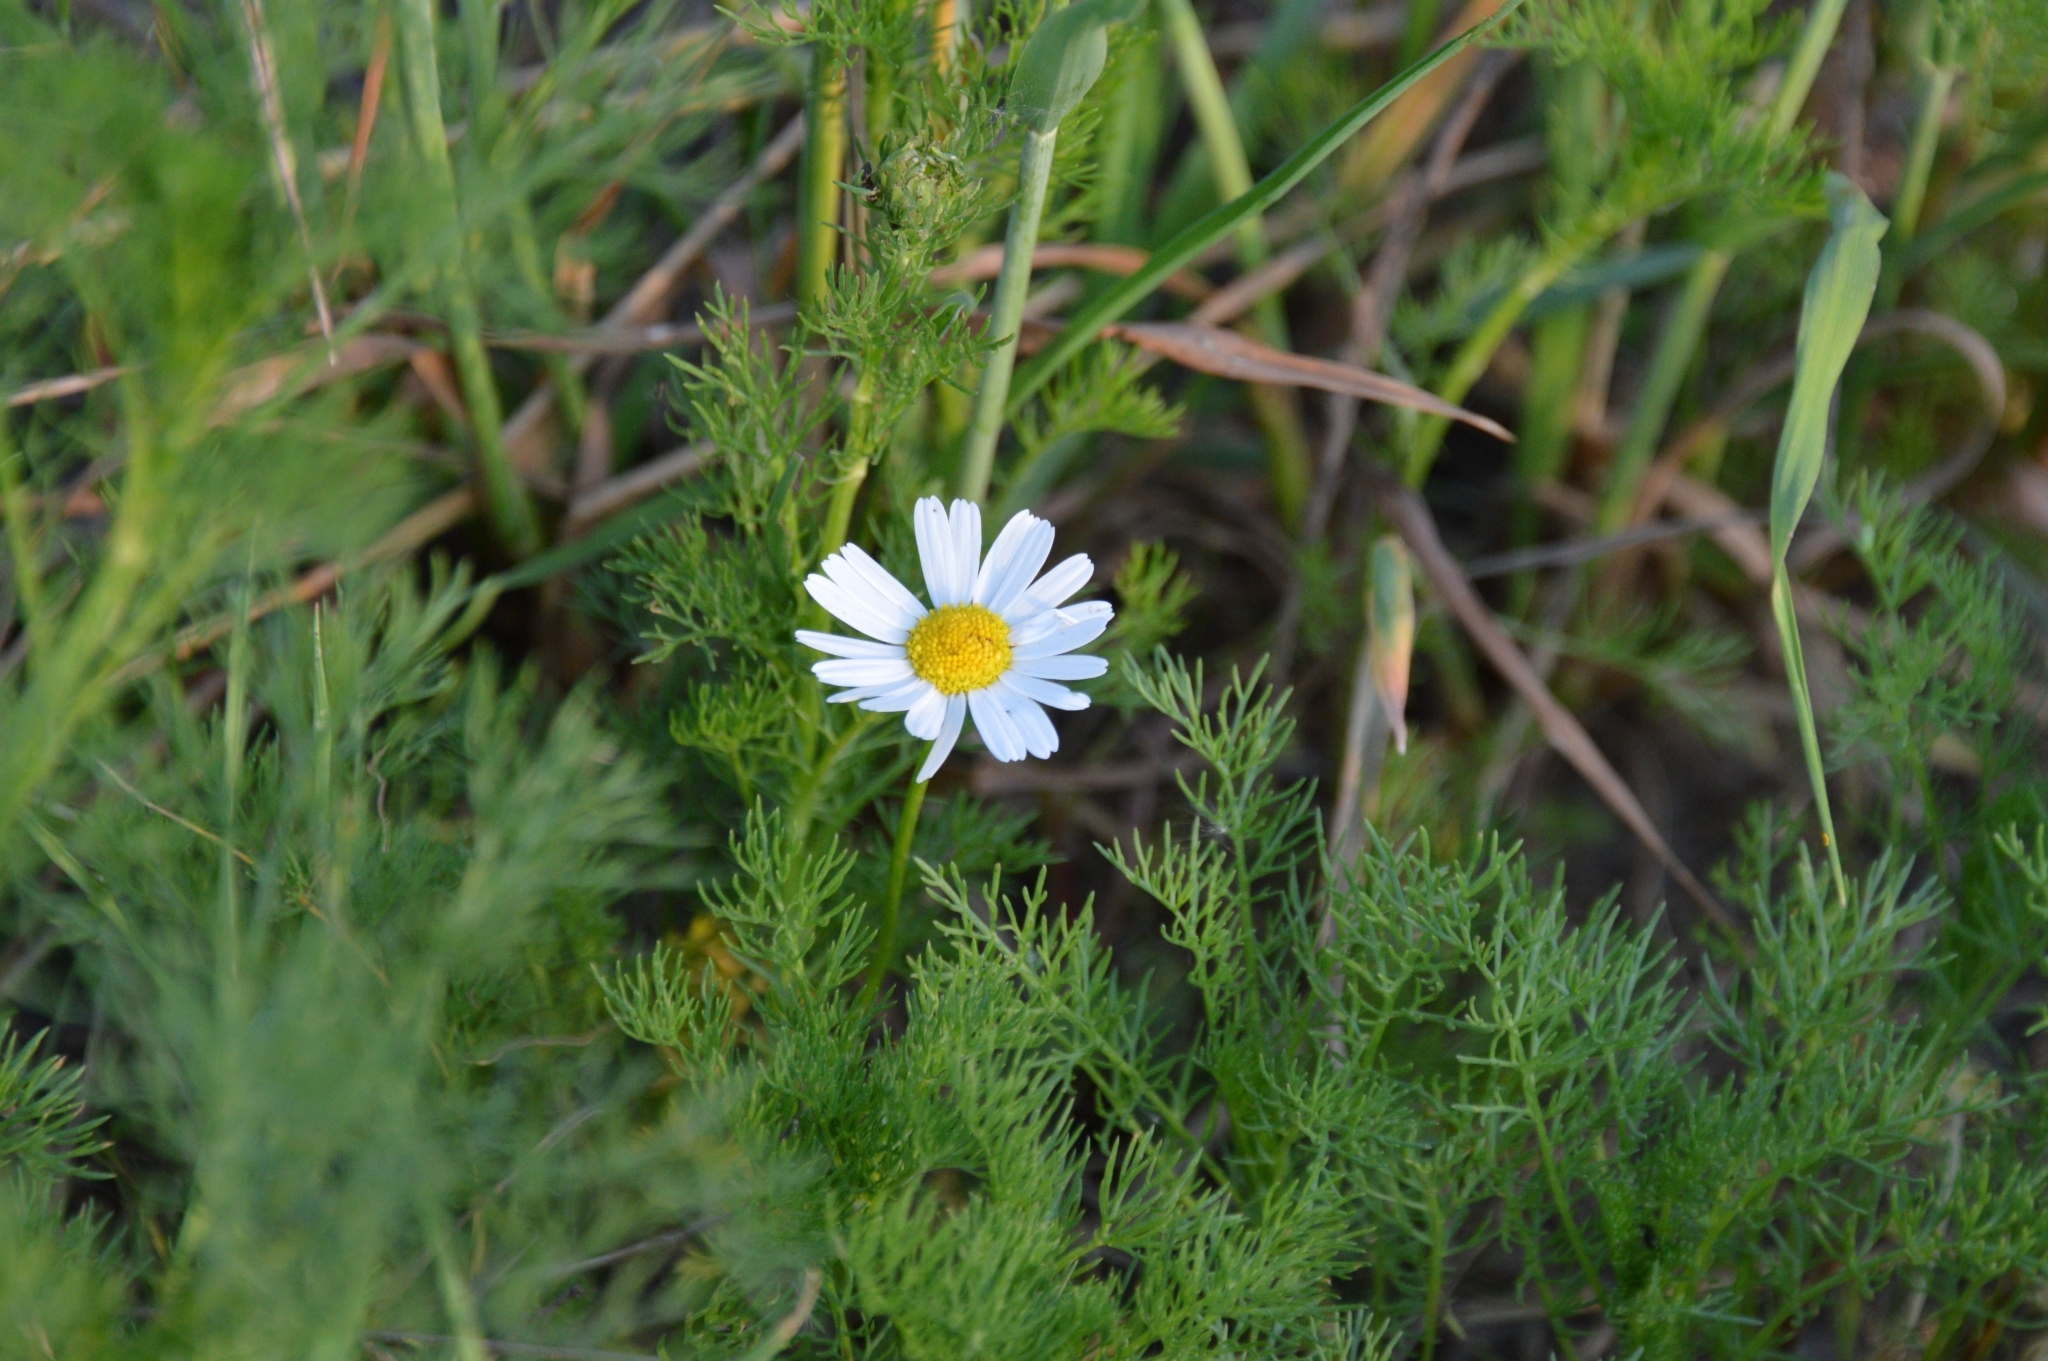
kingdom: Plantae
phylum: Tracheophyta
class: Magnoliopsida
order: Asterales
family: Asteraceae
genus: Tripleurospermum
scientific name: Tripleurospermum inodorum
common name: Scentless mayweed
